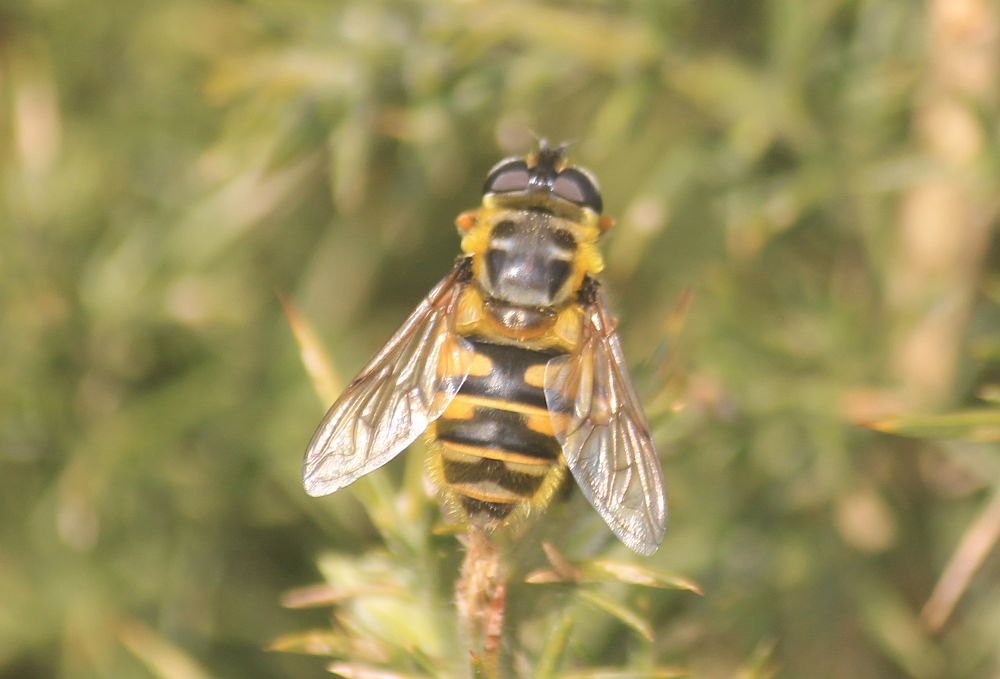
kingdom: Animalia
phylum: Arthropoda
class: Insecta
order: Diptera
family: Syrphidae
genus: Myathropa
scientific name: Myathropa florea
